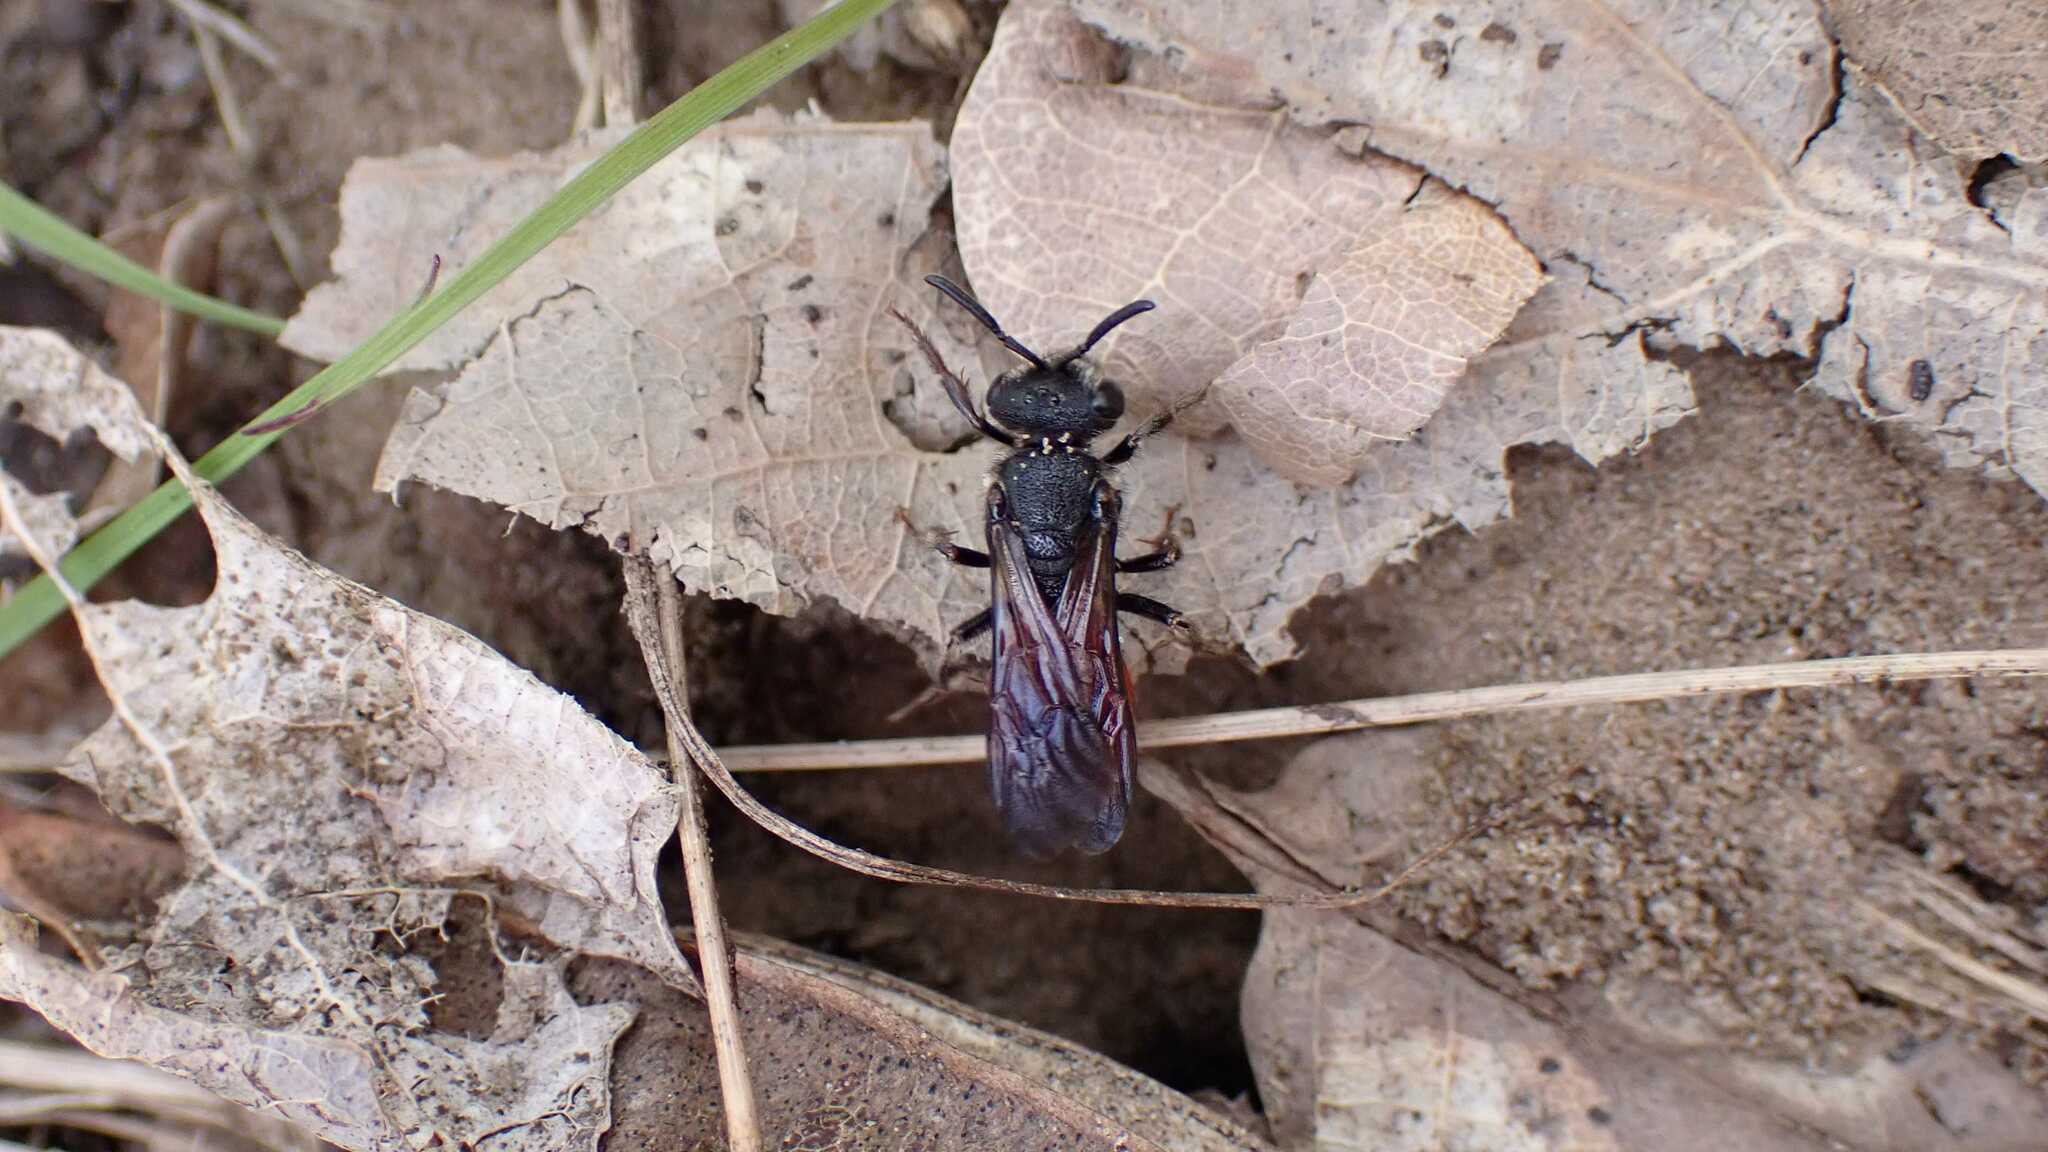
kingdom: Animalia
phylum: Arthropoda
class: Insecta
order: Hymenoptera
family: Halictidae
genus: Sphecodes
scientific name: Sphecodes albilabris
